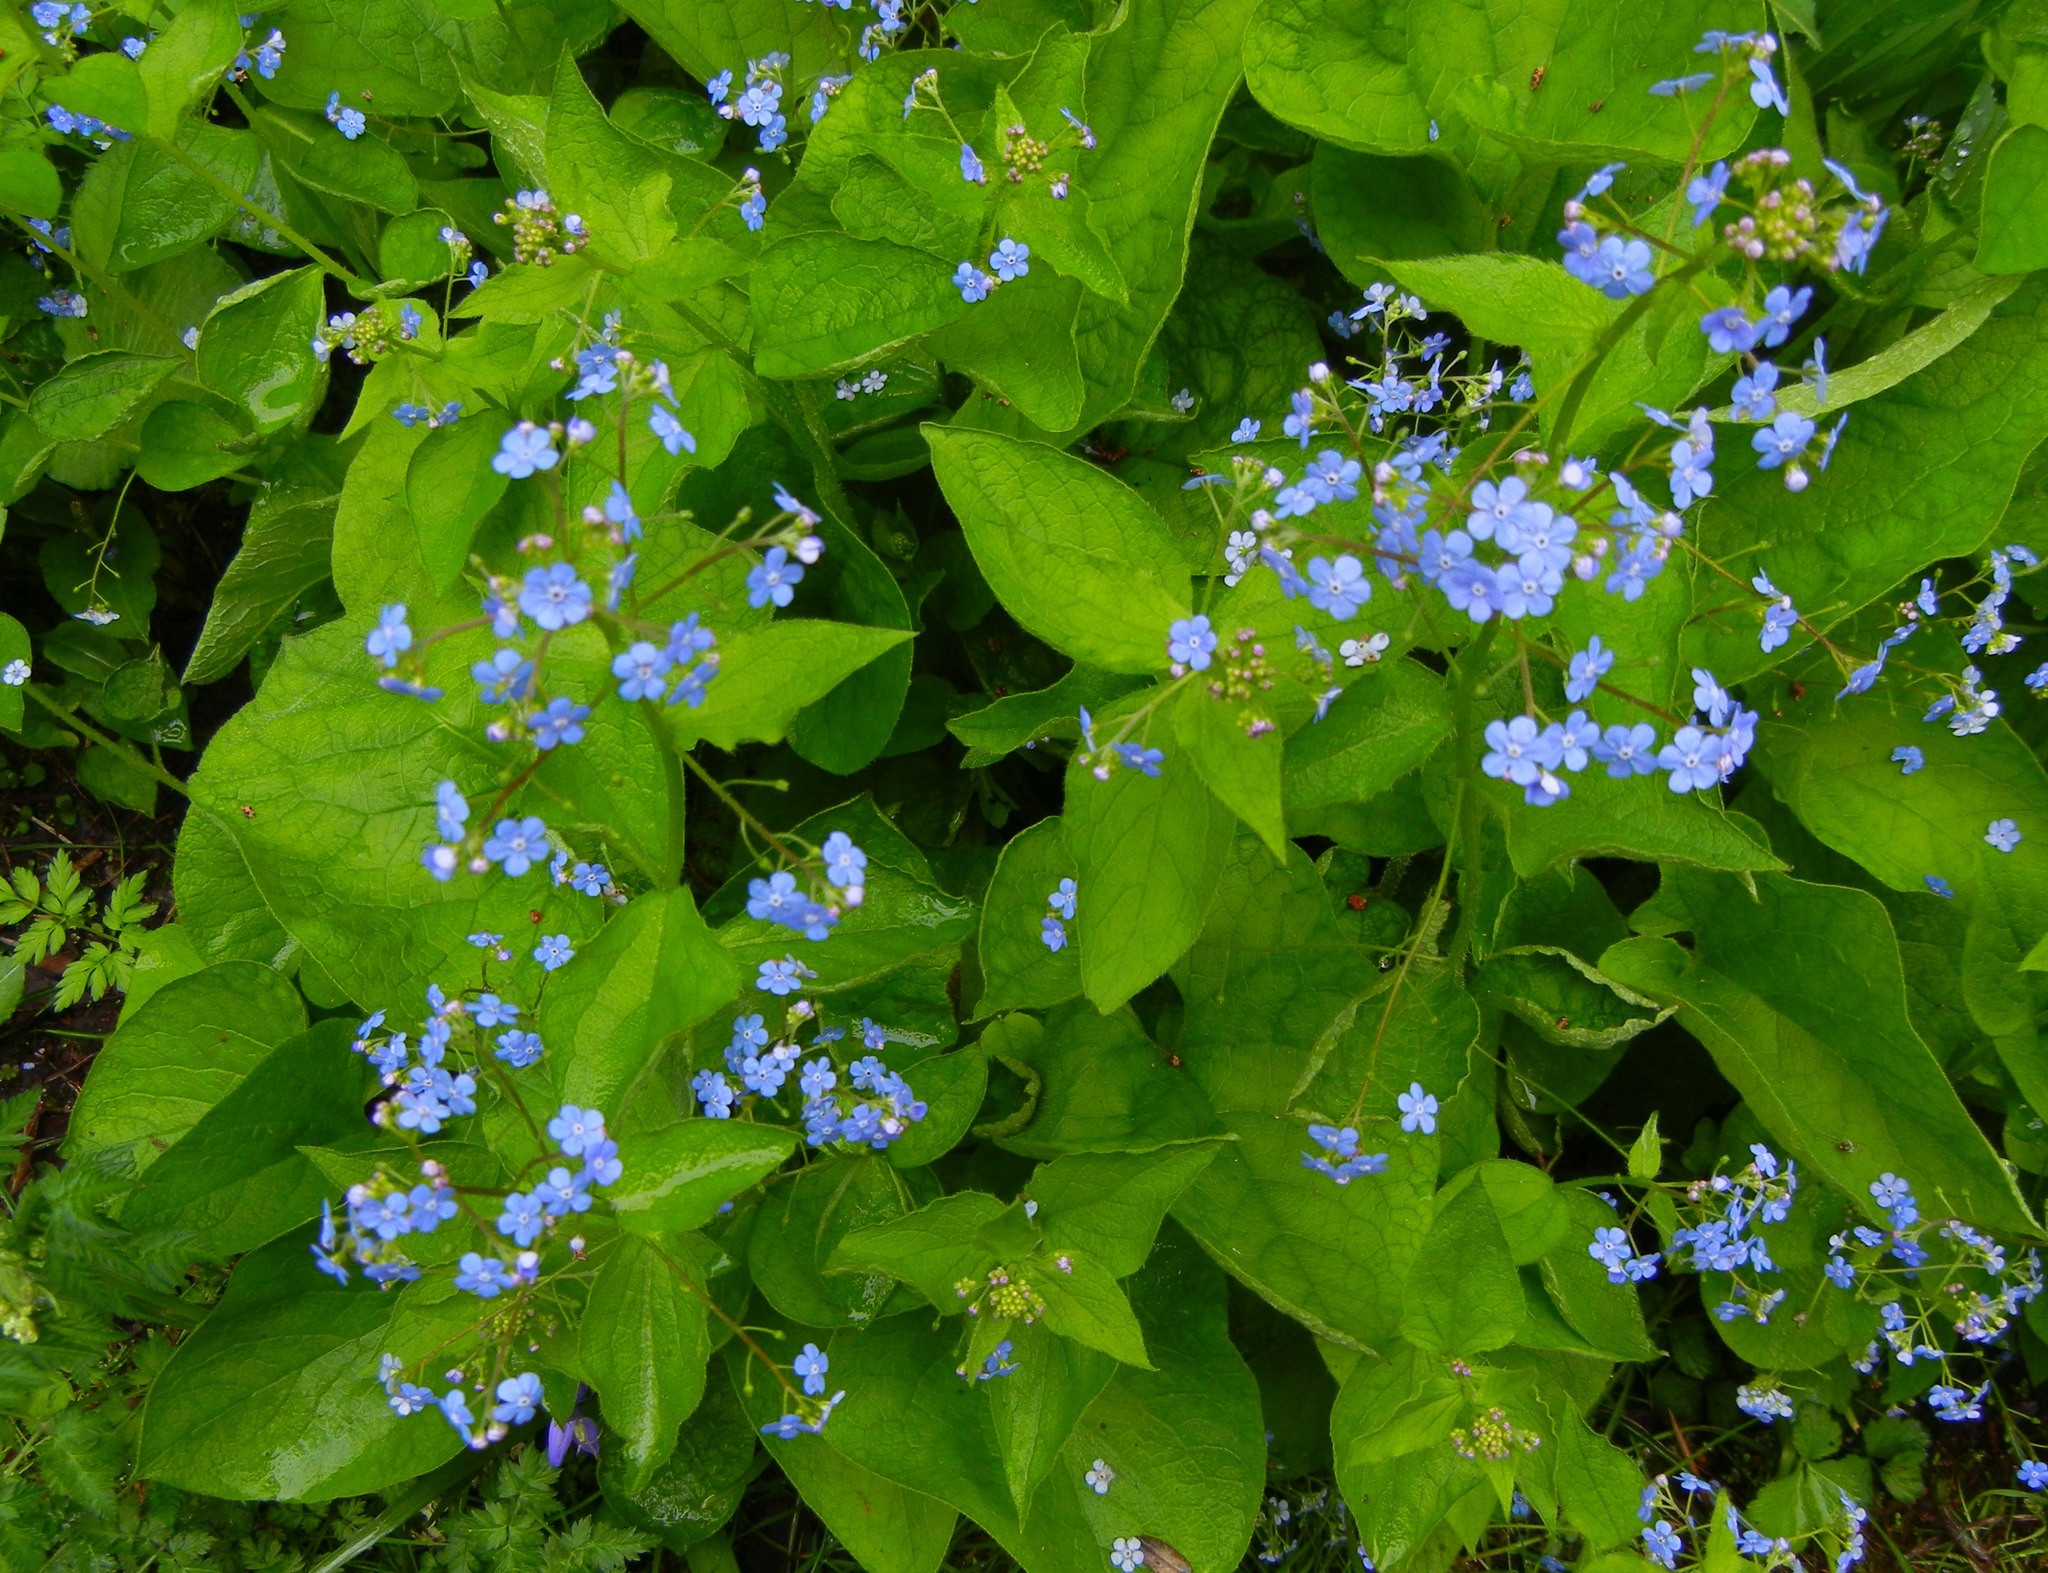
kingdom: Plantae
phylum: Tracheophyta
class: Magnoliopsida
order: Boraginales
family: Boraginaceae
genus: Brunnera
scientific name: Brunnera macrophylla
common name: Great forget-me-not
